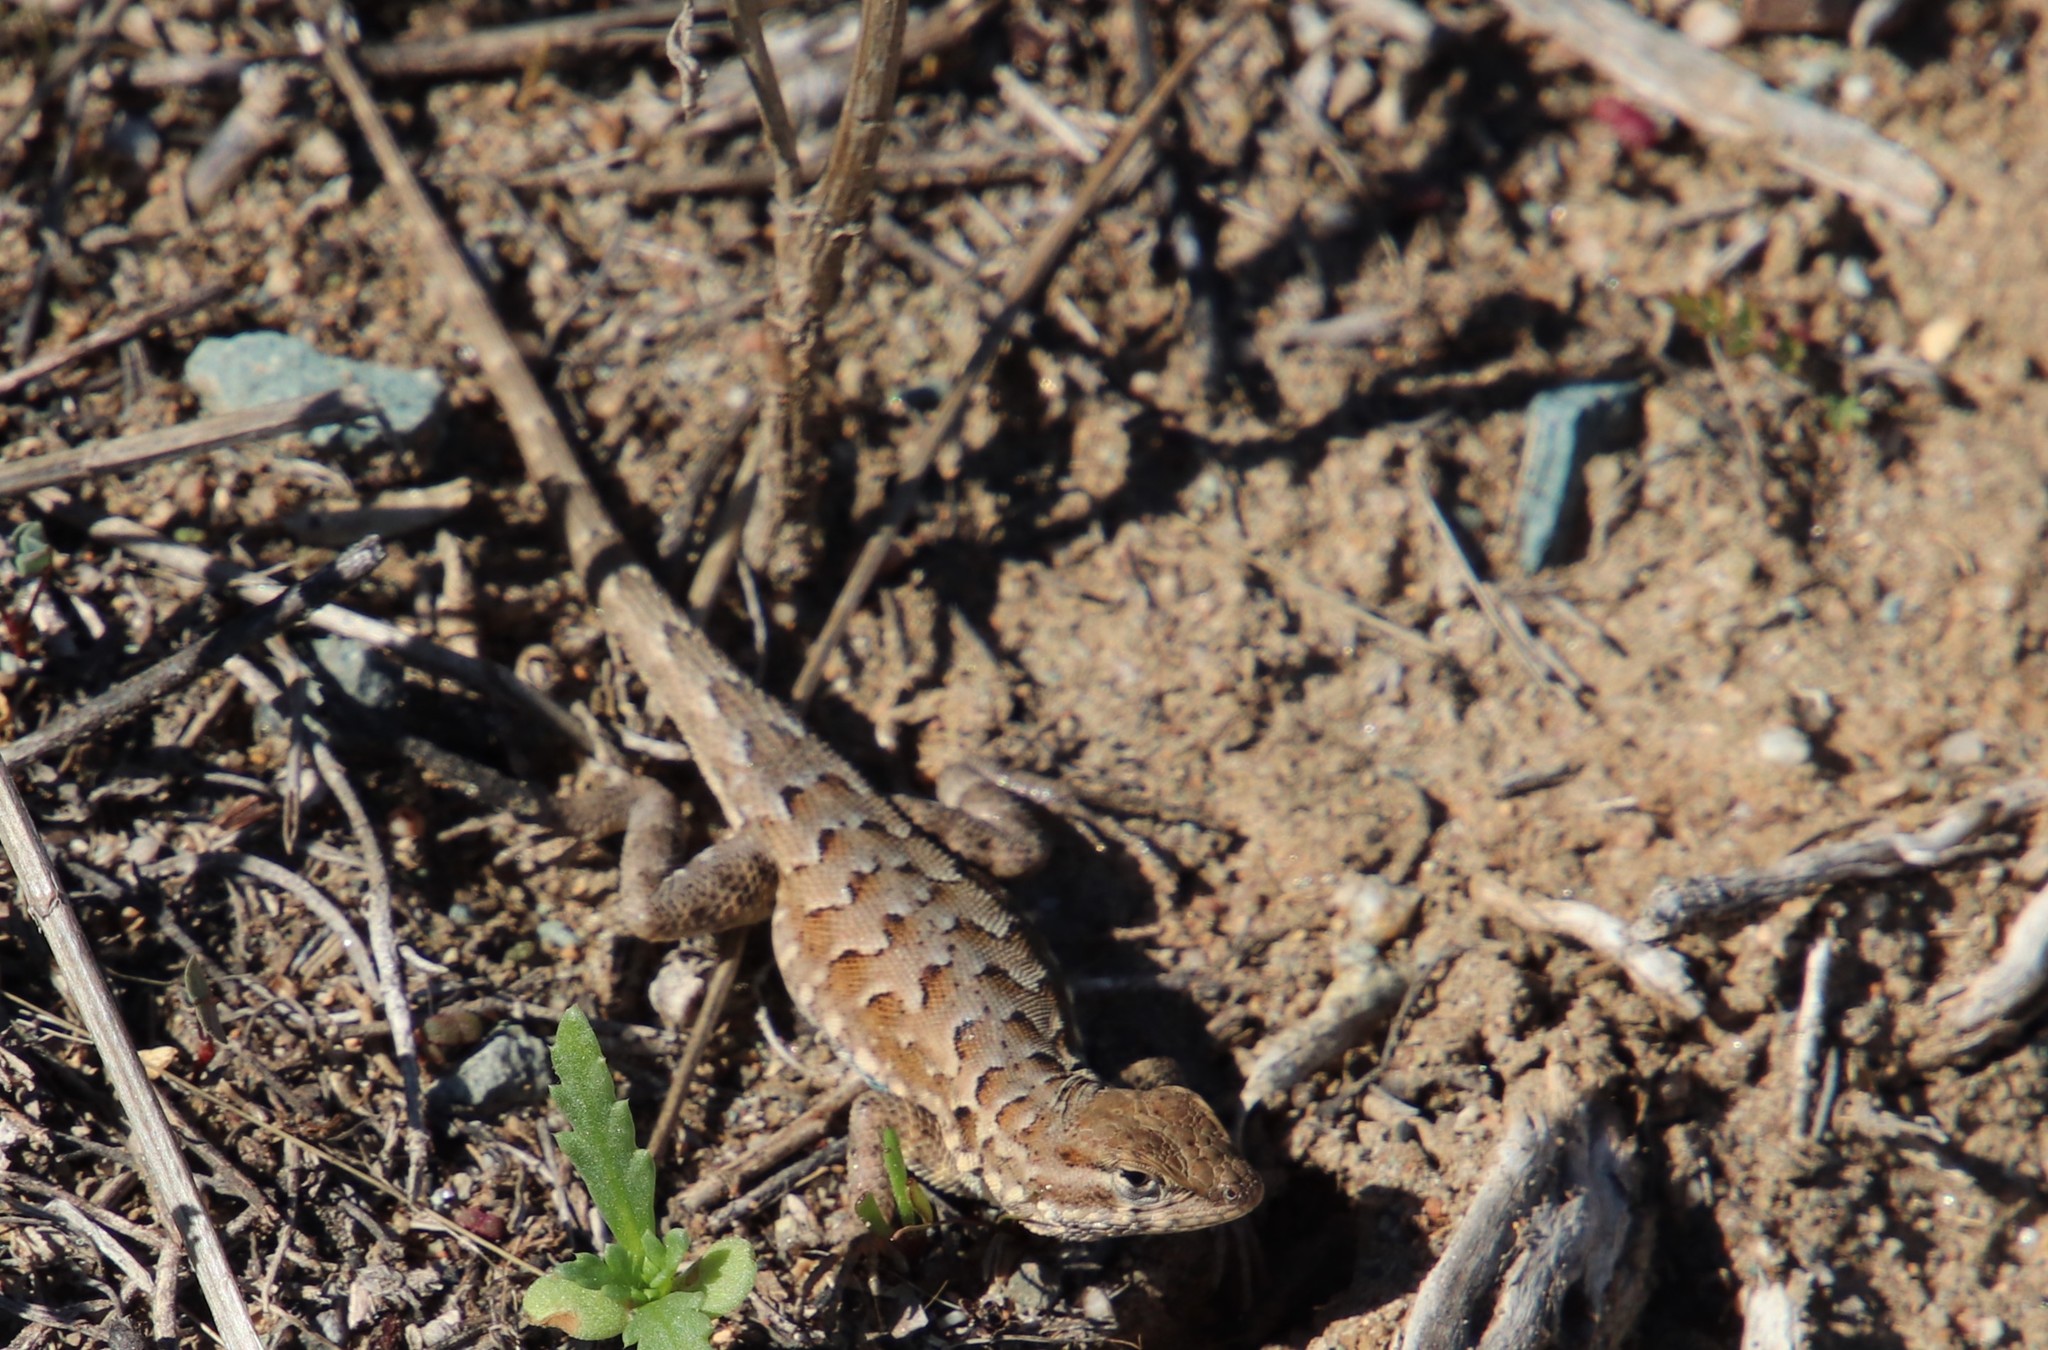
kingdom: Animalia
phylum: Chordata
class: Squamata
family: Phrynosomatidae
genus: Uta
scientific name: Uta stansburiana
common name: Side-blotched lizard
